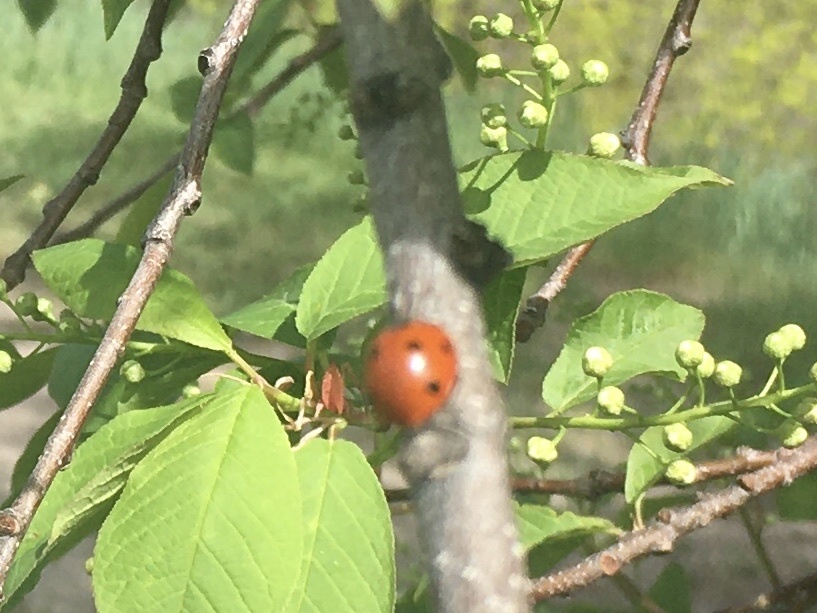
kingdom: Animalia
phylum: Arthropoda
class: Insecta
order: Coleoptera
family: Coccinellidae
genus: Coccinella
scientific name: Coccinella septempunctata
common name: Sevenspotted lady beetle
